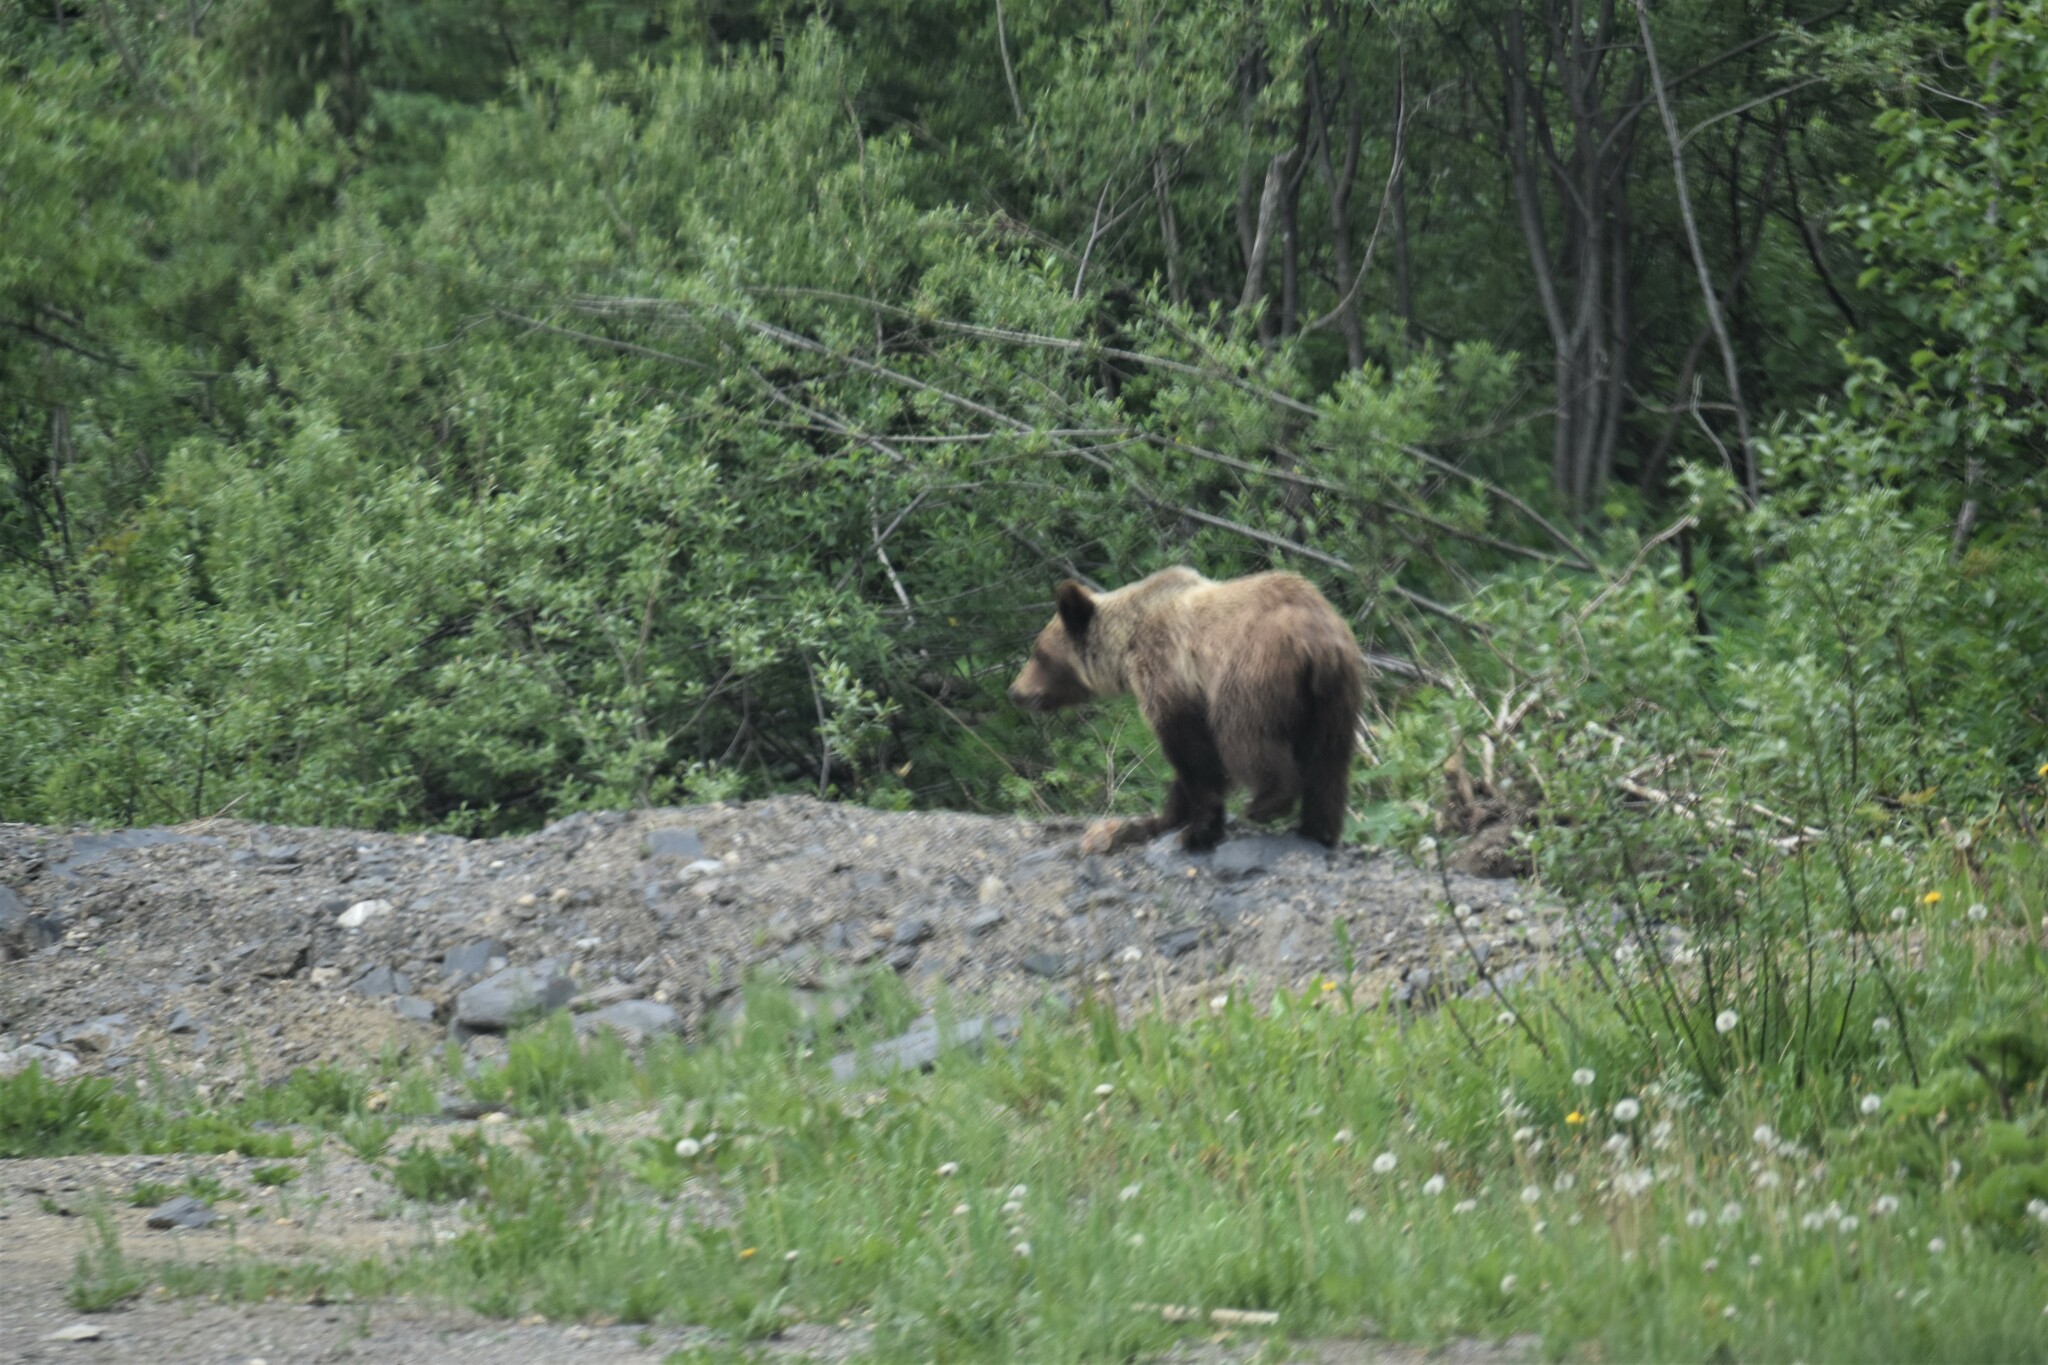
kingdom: Animalia
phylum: Chordata
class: Mammalia
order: Carnivora
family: Ursidae
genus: Ursus
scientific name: Ursus arctos
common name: Brown bear
